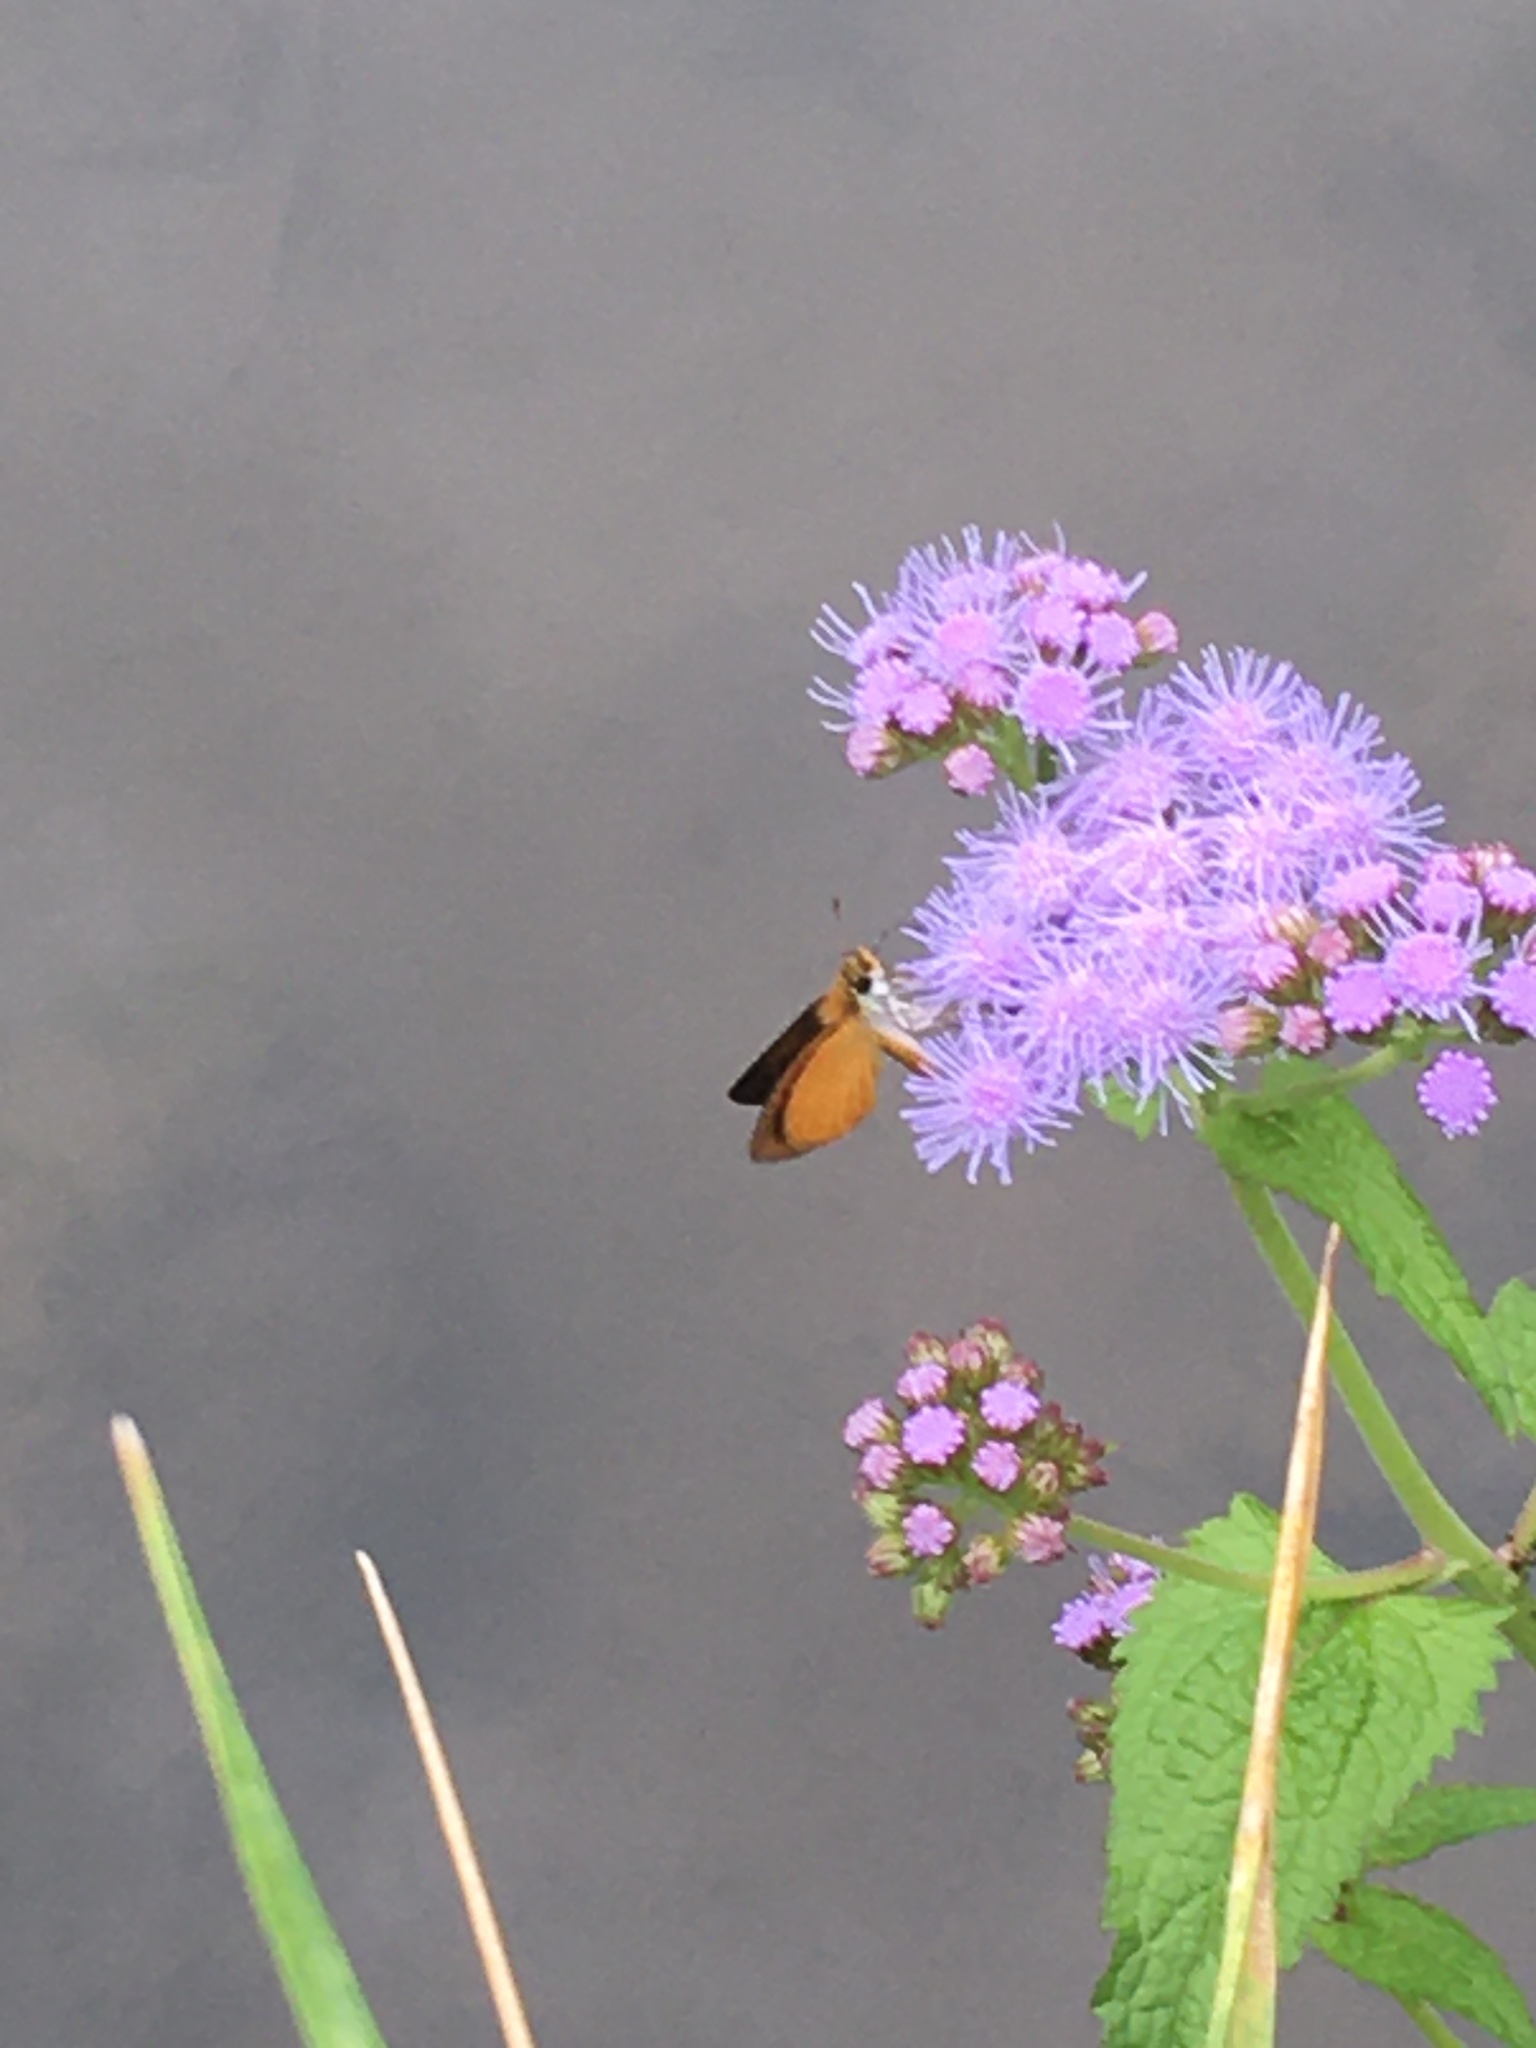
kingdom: Animalia
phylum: Arthropoda
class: Insecta
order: Lepidoptera
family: Hesperiidae
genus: Ancyloxypha
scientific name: Ancyloxypha numitor
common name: Least skipper
